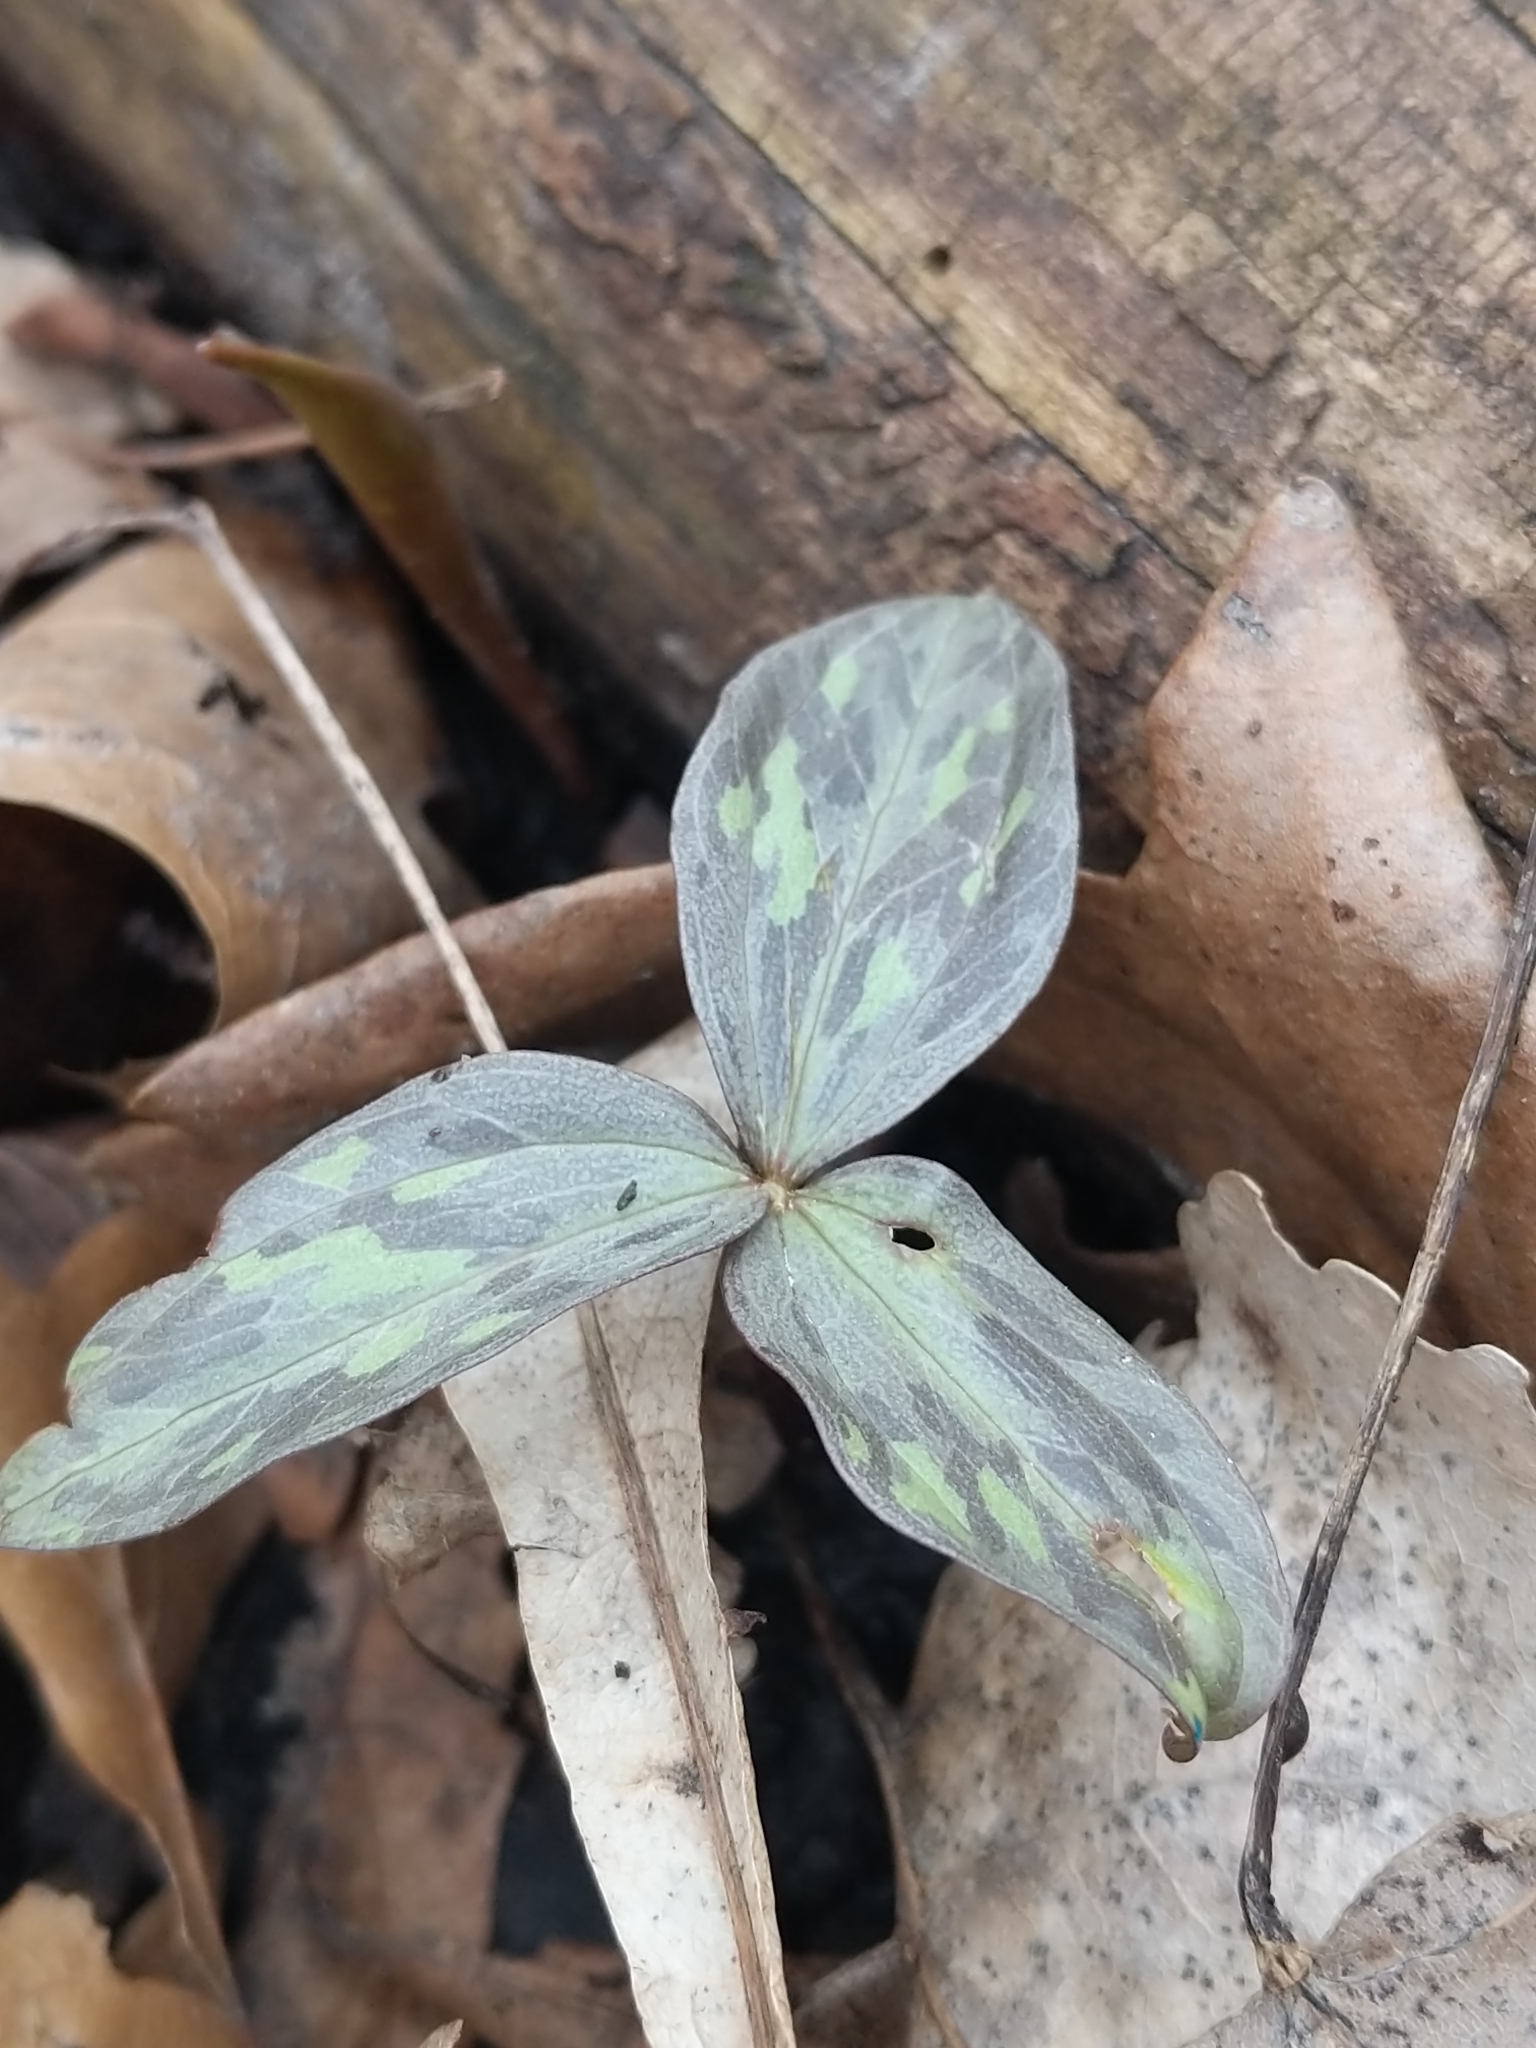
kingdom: Plantae
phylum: Tracheophyta
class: Liliopsida
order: Liliales
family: Melanthiaceae
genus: Trillium
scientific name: Trillium recurvatum
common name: Bloody butcher
